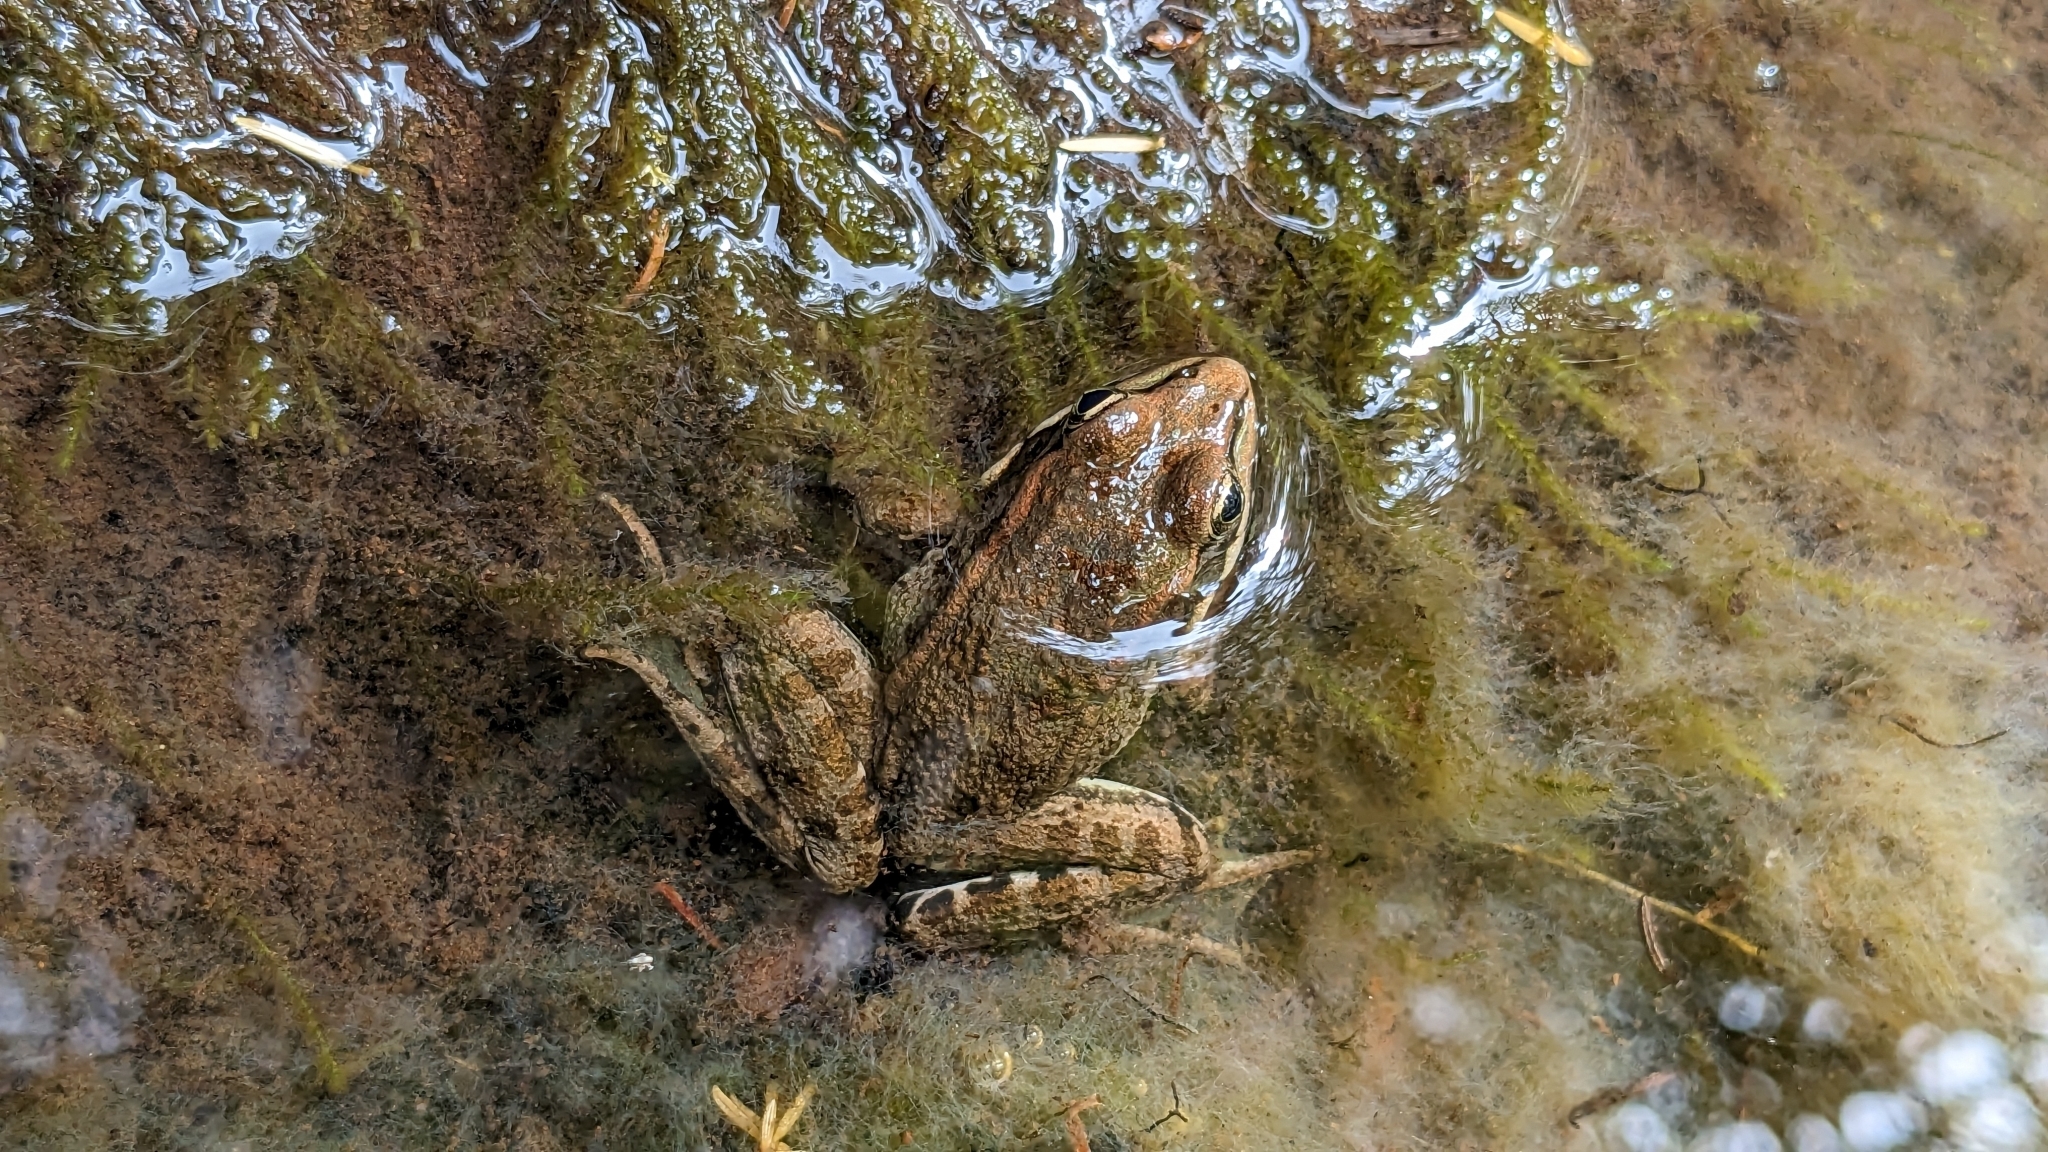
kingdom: Animalia
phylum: Chordata
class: Amphibia
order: Anura
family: Ranidae
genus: Pelophylax
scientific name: Pelophylax perezi
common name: Perez's frog
